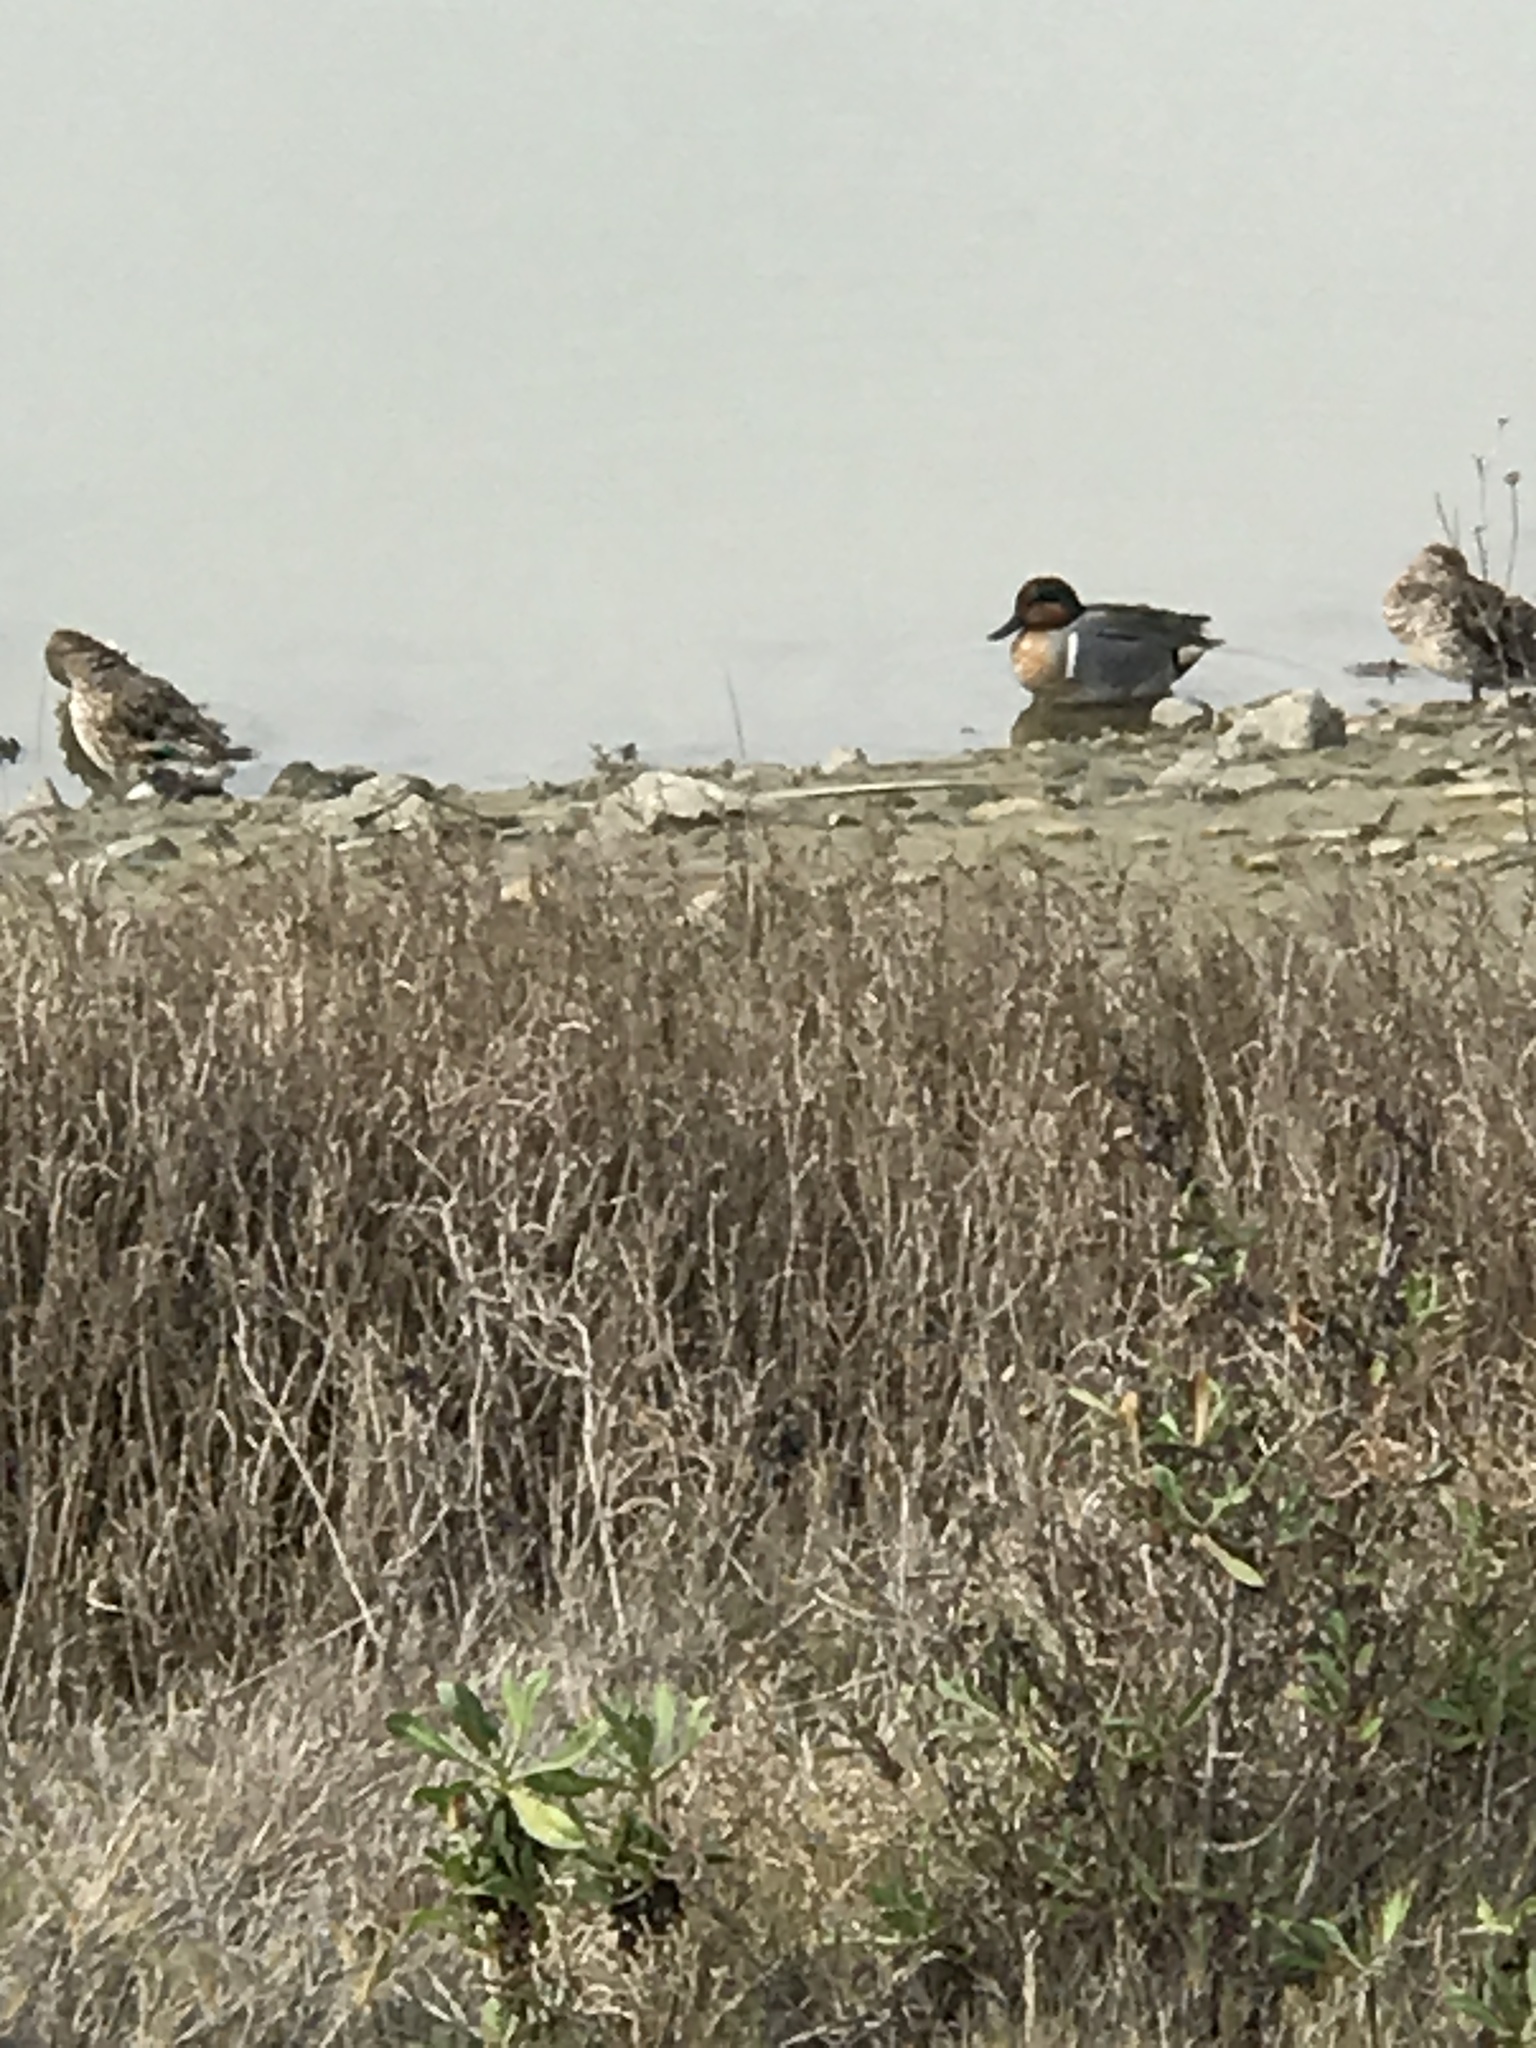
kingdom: Animalia
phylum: Chordata
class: Aves
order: Anseriformes
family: Anatidae
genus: Anas
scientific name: Anas crecca
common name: Eurasian teal
